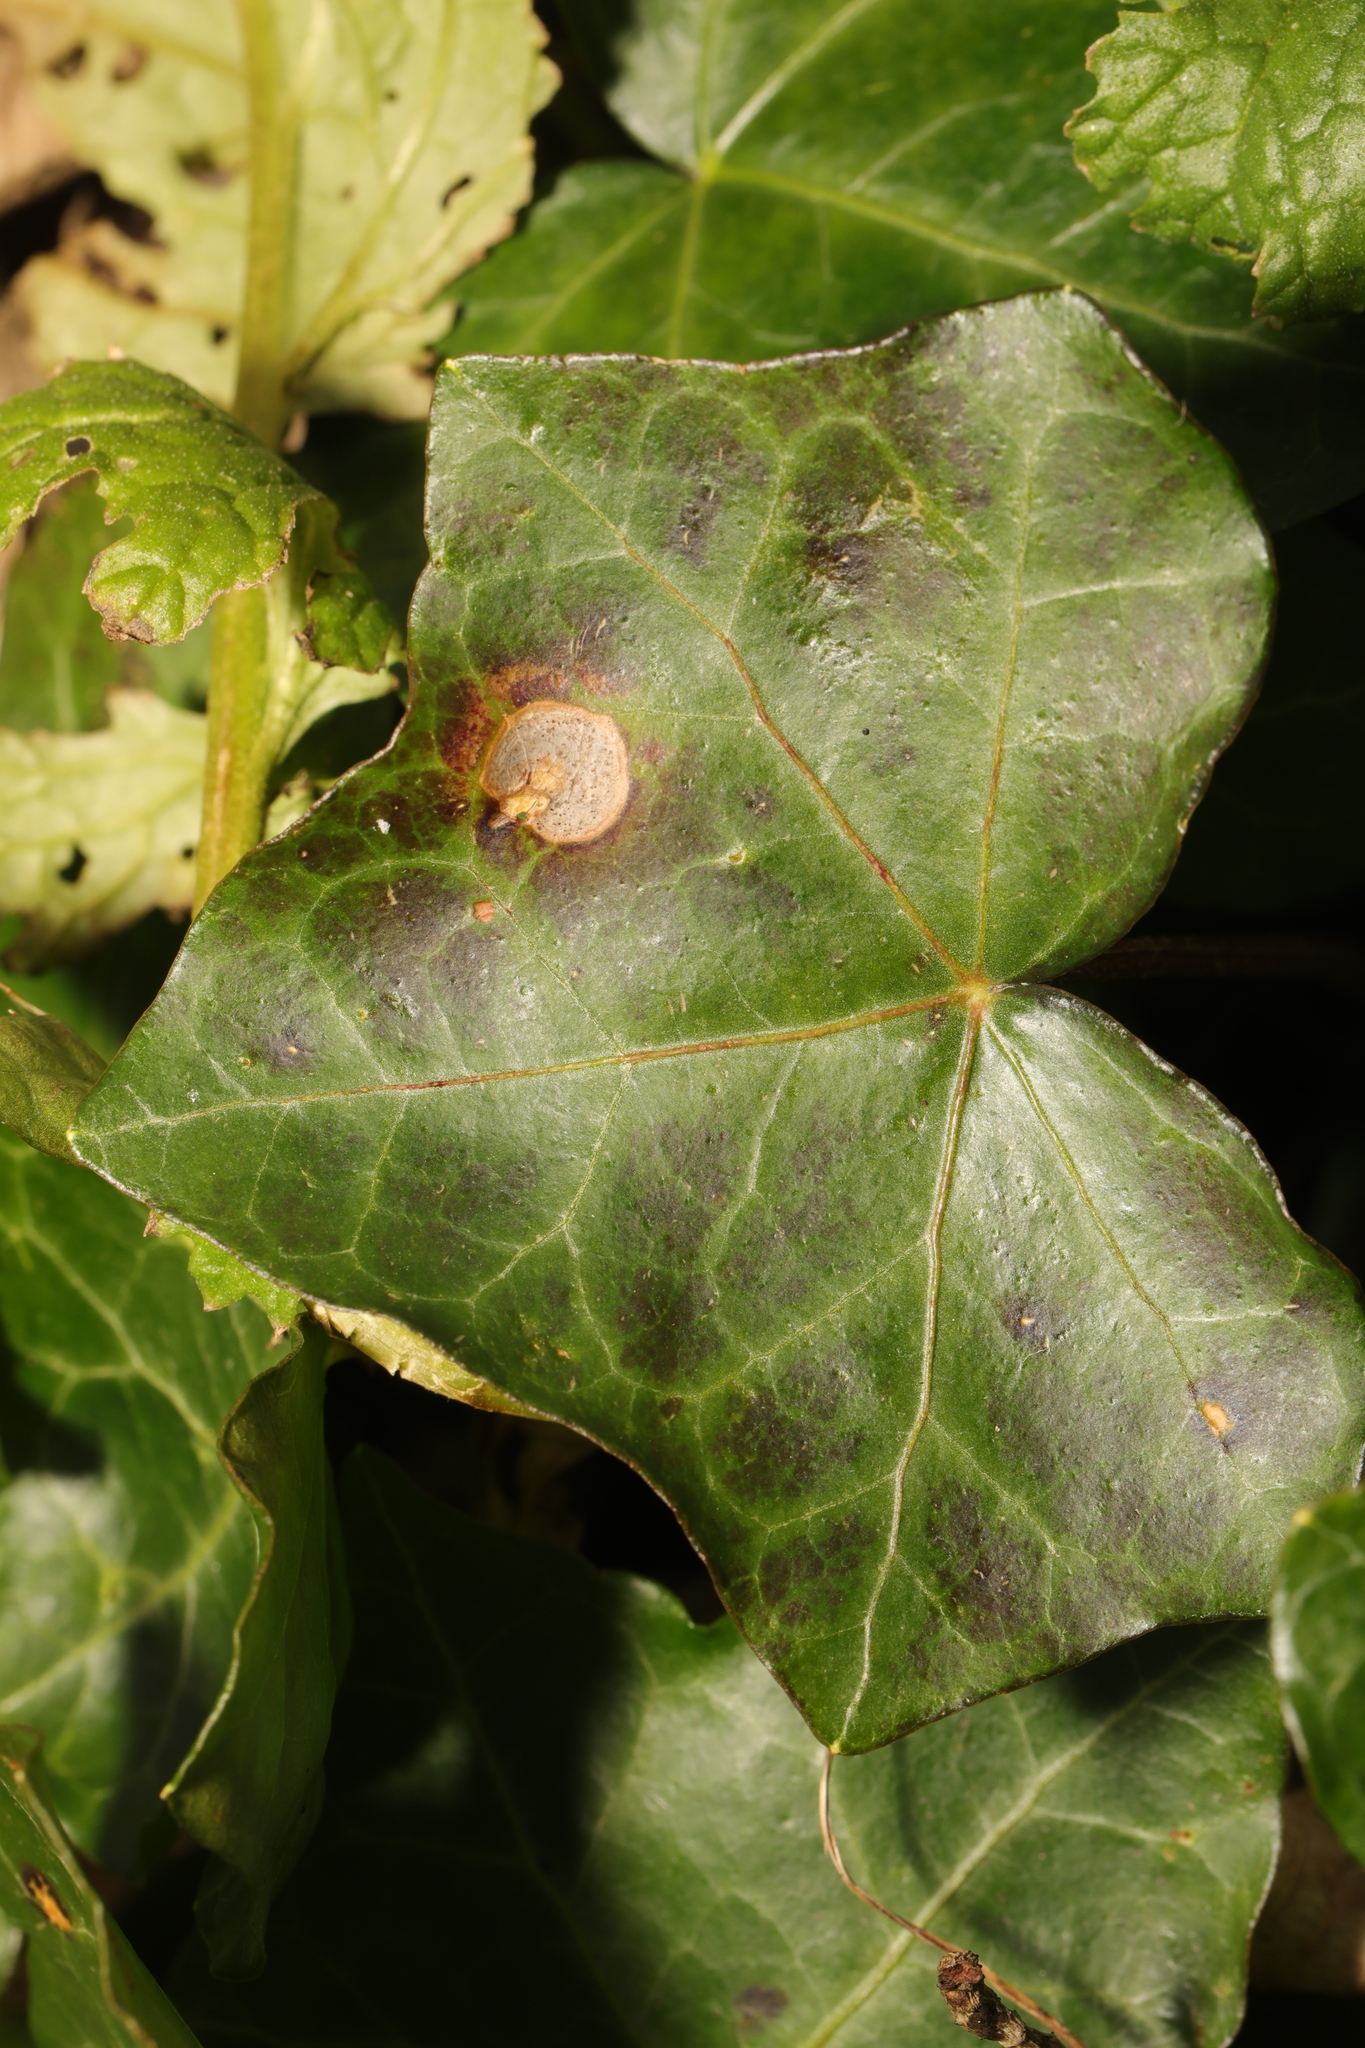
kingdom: Fungi
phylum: Ascomycota
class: Dothideomycetes
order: Pleosporales
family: Didymellaceae
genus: Boeremia
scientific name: Boeremia hedericola
